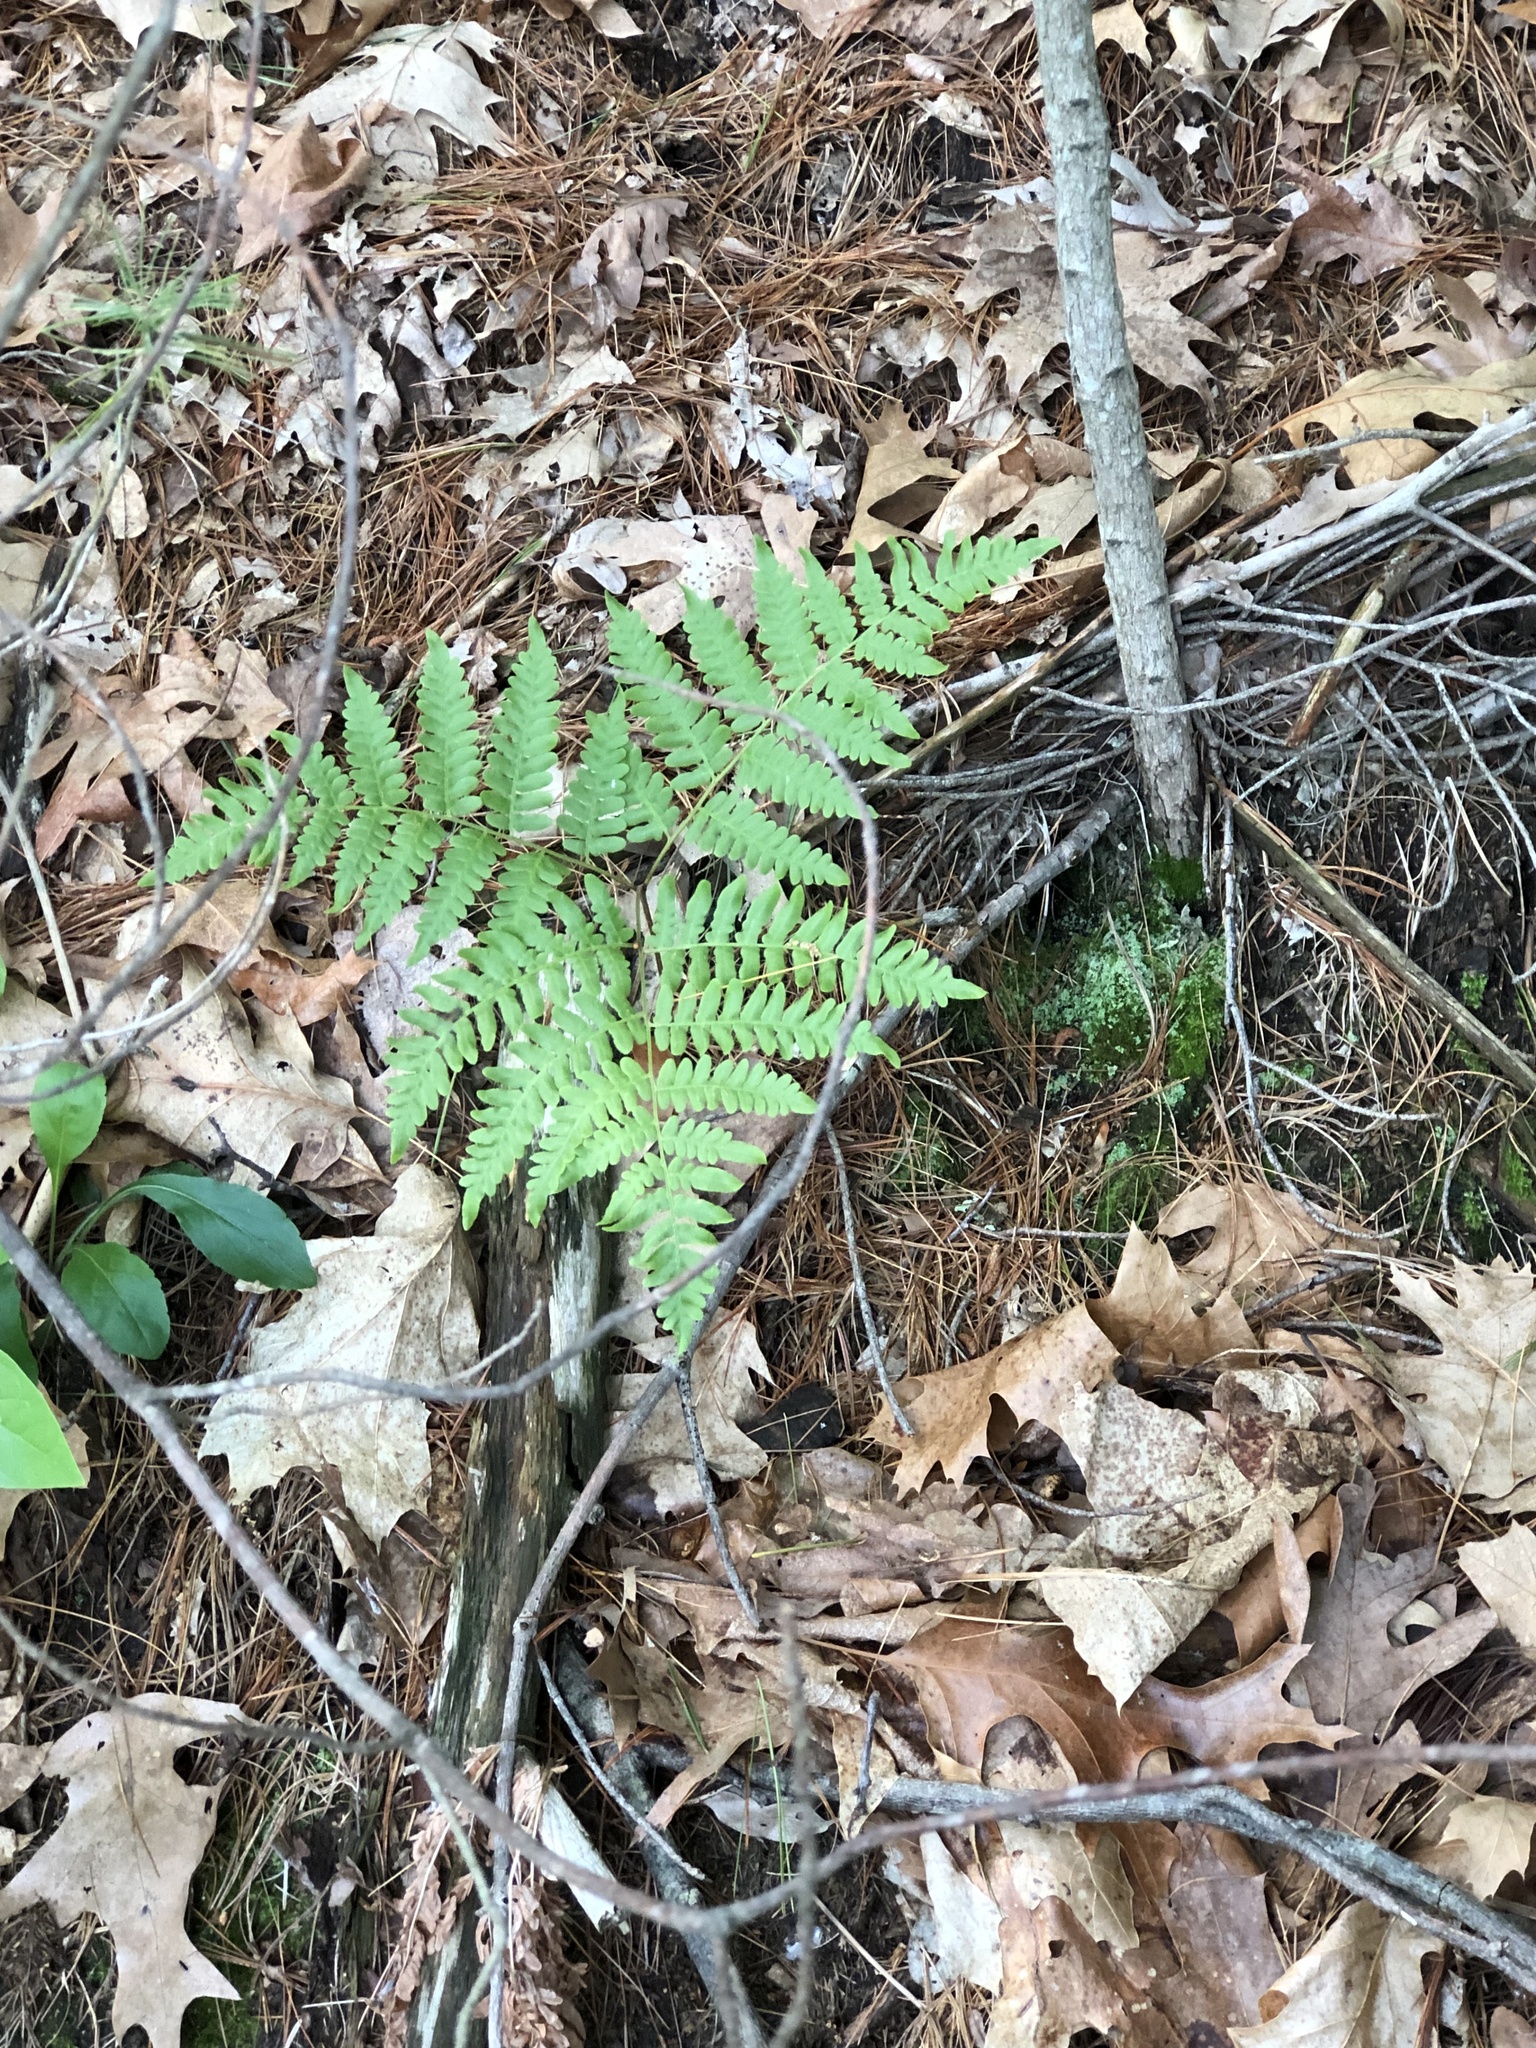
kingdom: Plantae
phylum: Tracheophyta
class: Polypodiopsida
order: Polypodiales
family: Dennstaedtiaceae
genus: Pteridium
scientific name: Pteridium aquilinum
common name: Bracken
